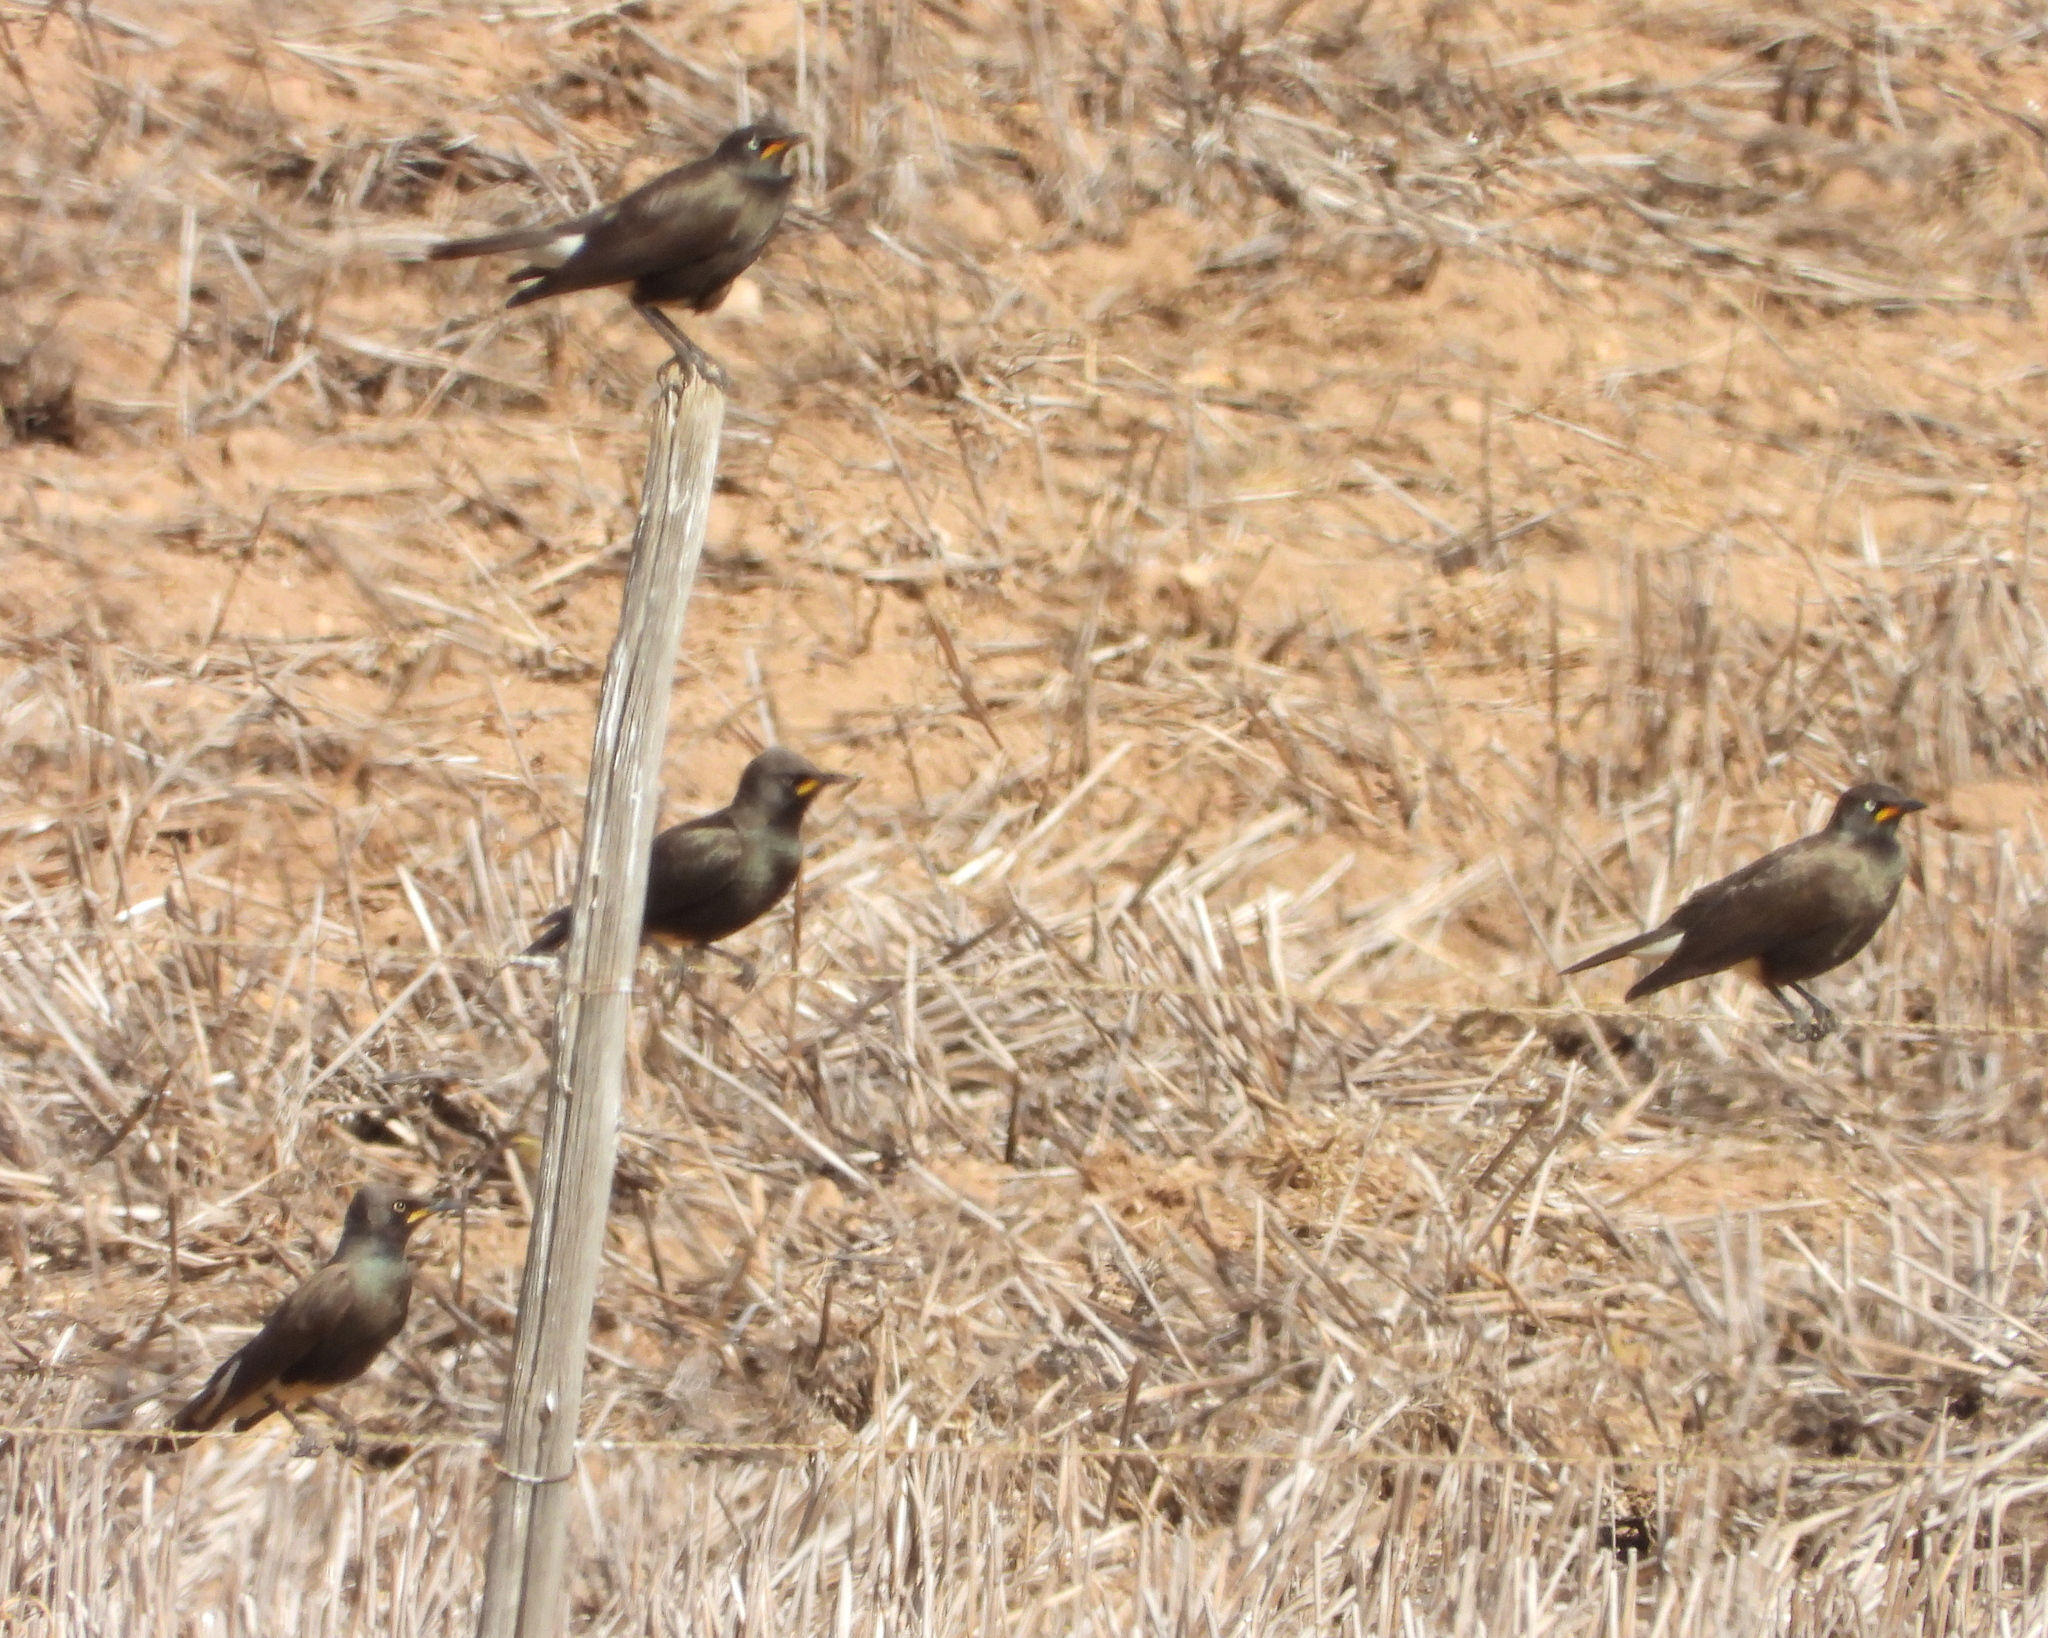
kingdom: Animalia
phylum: Chordata
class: Aves
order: Passeriformes
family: Sturnidae
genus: Lamprotornis
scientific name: Lamprotornis bicolor
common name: Pied starling
